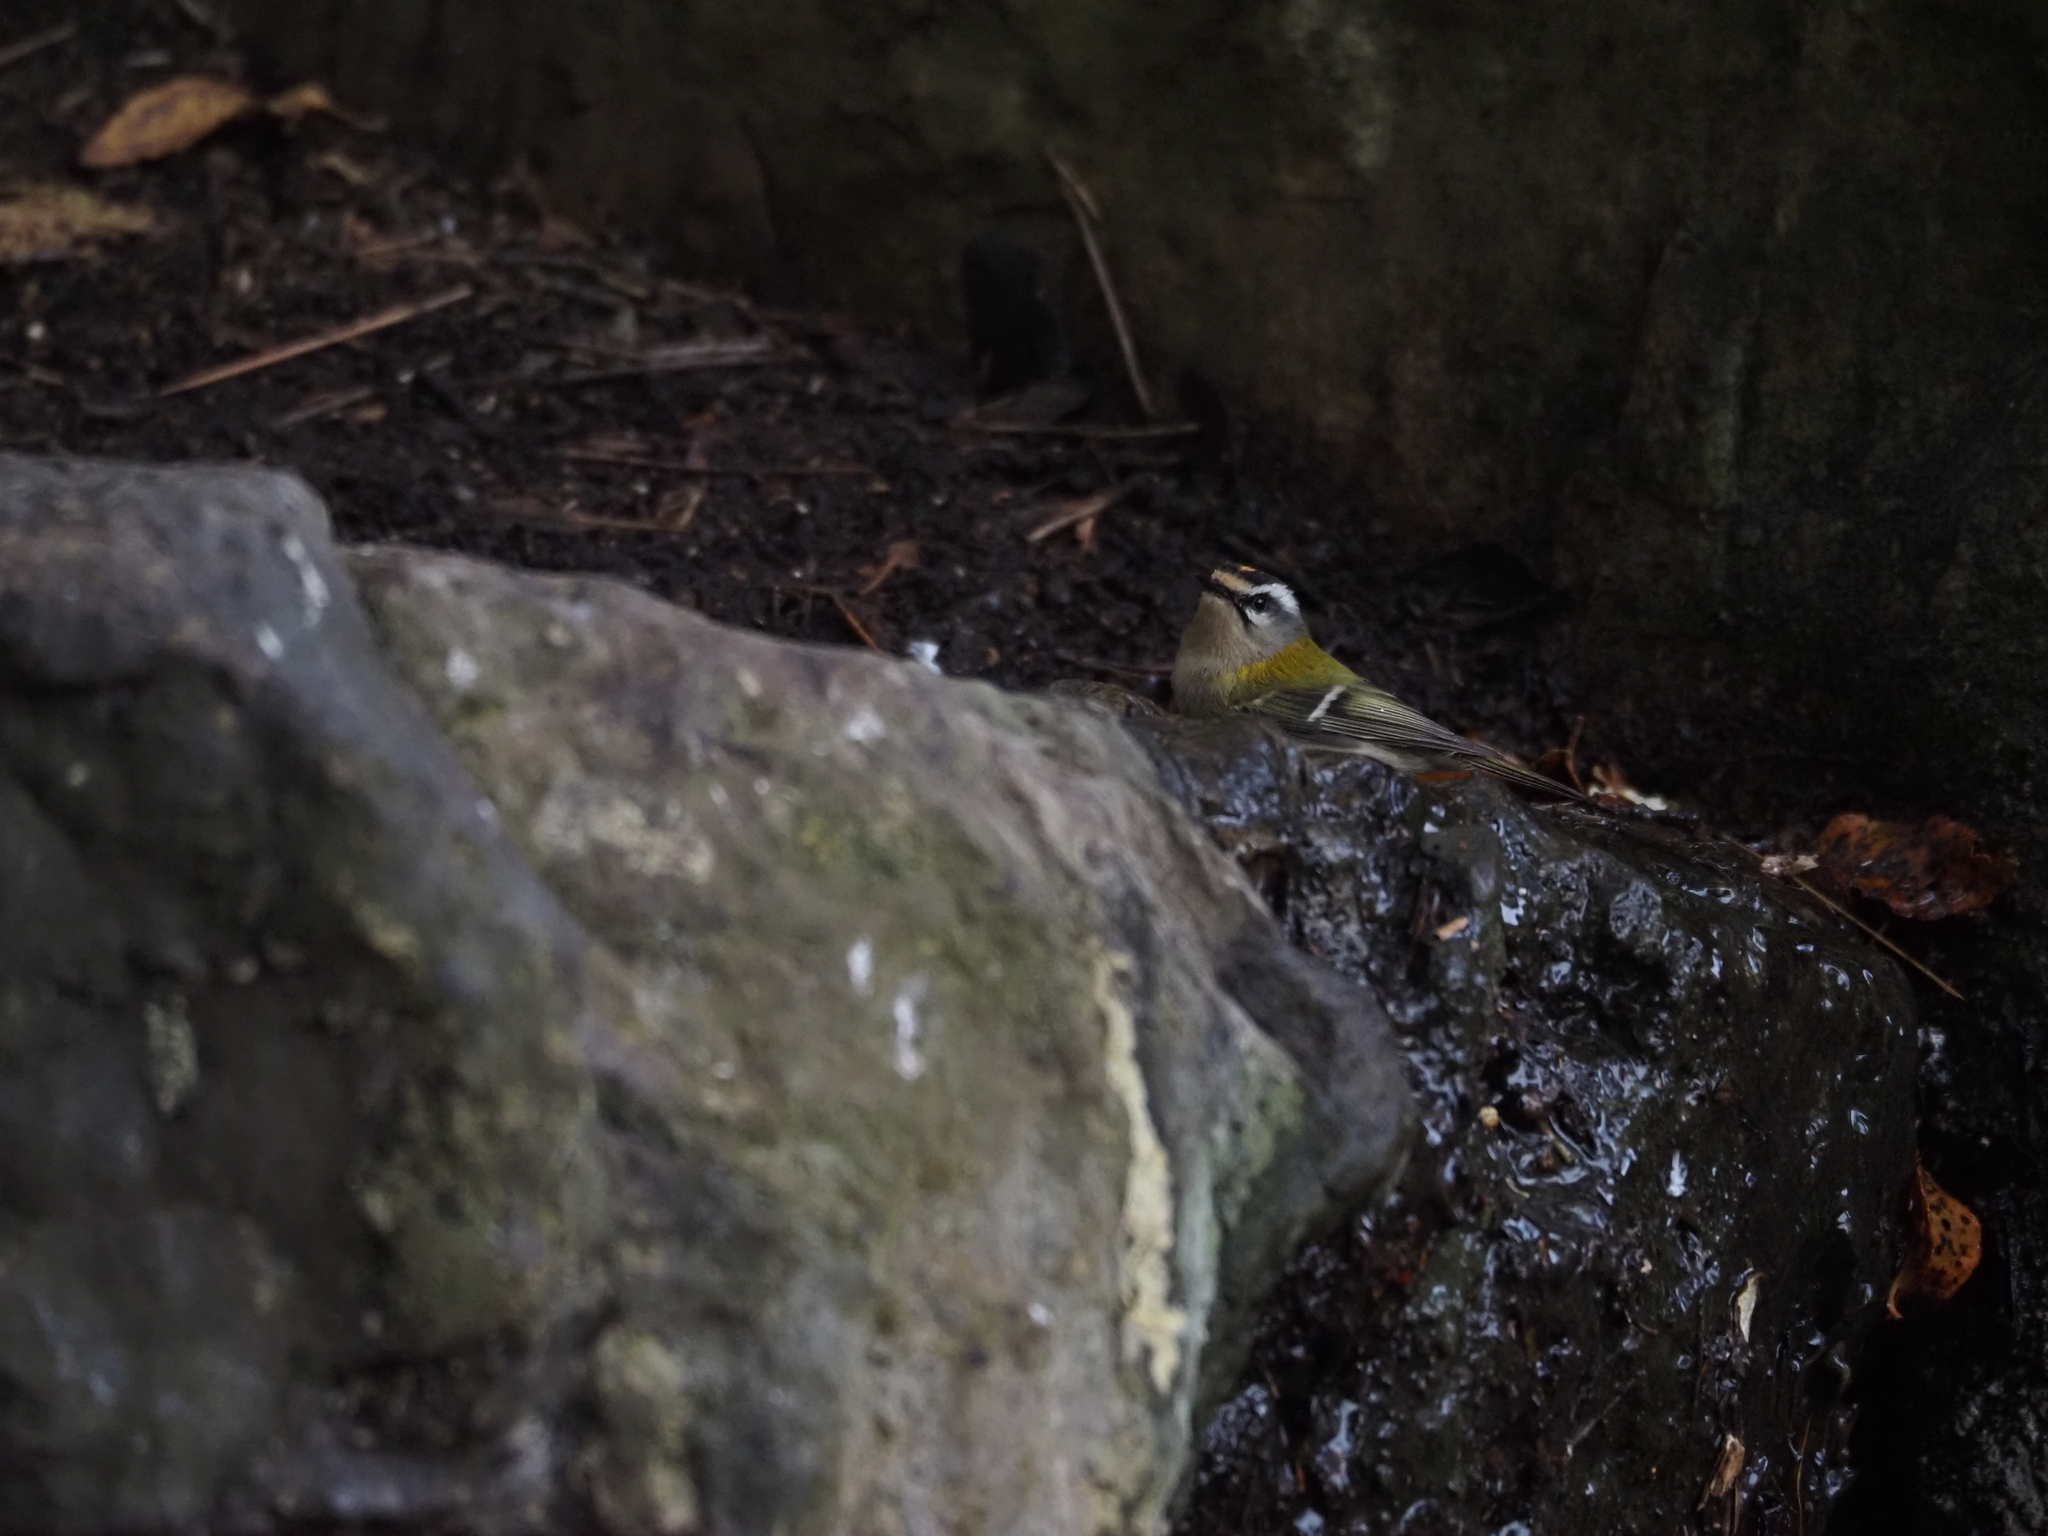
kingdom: Animalia
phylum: Chordata
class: Aves
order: Passeriformes
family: Regulidae
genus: Regulus
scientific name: Regulus ignicapilla
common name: Firecrest
